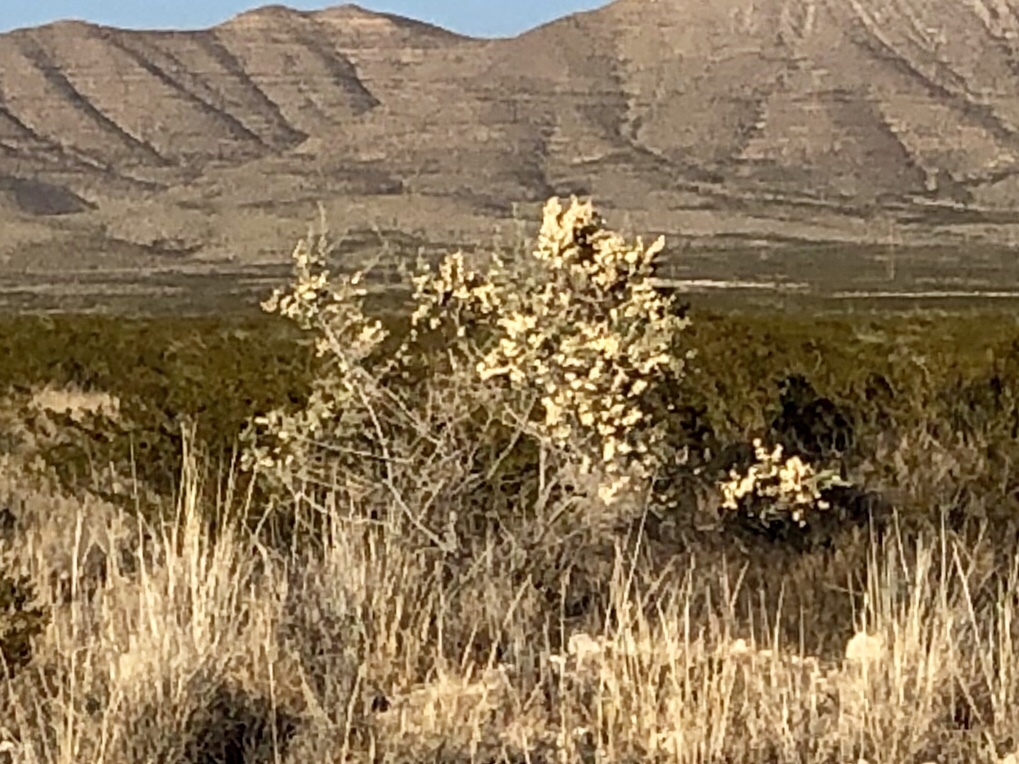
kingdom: Plantae
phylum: Tracheophyta
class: Magnoliopsida
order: Caryophyllales
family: Amaranthaceae
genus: Atriplex
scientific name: Atriplex canescens
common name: Four-wing saltbush
